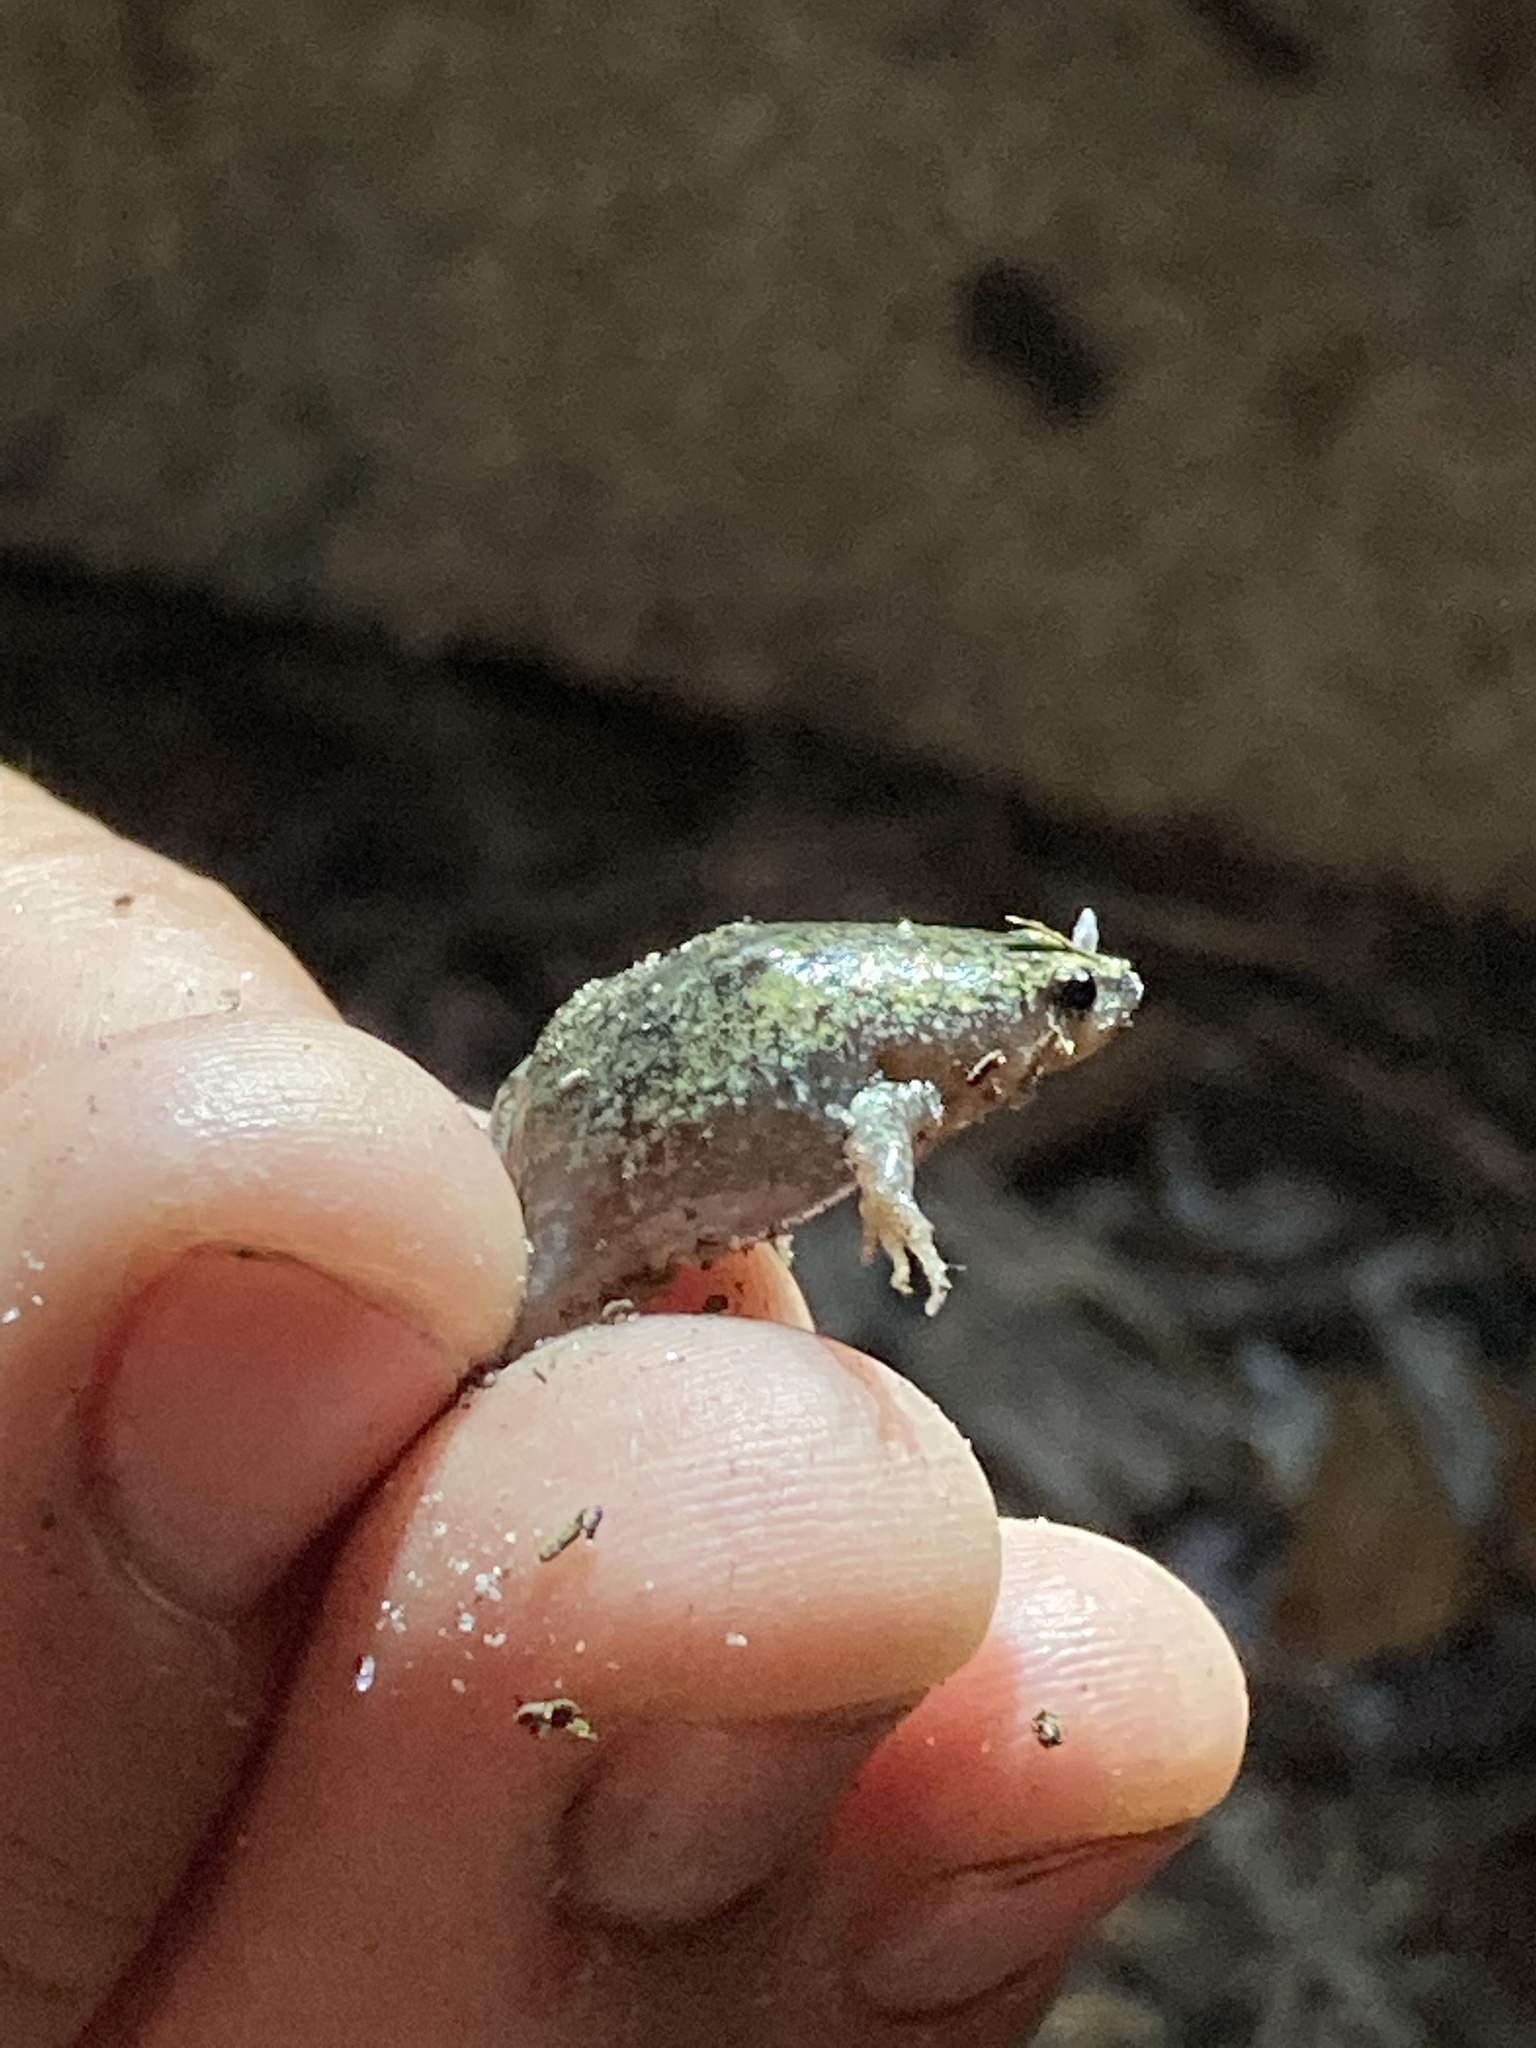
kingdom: Animalia
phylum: Chordata
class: Amphibia
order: Anura
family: Microhylidae
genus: Gastrophryne
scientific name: Gastrophryne carolinensis
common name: Eastern narrowmouth toad
